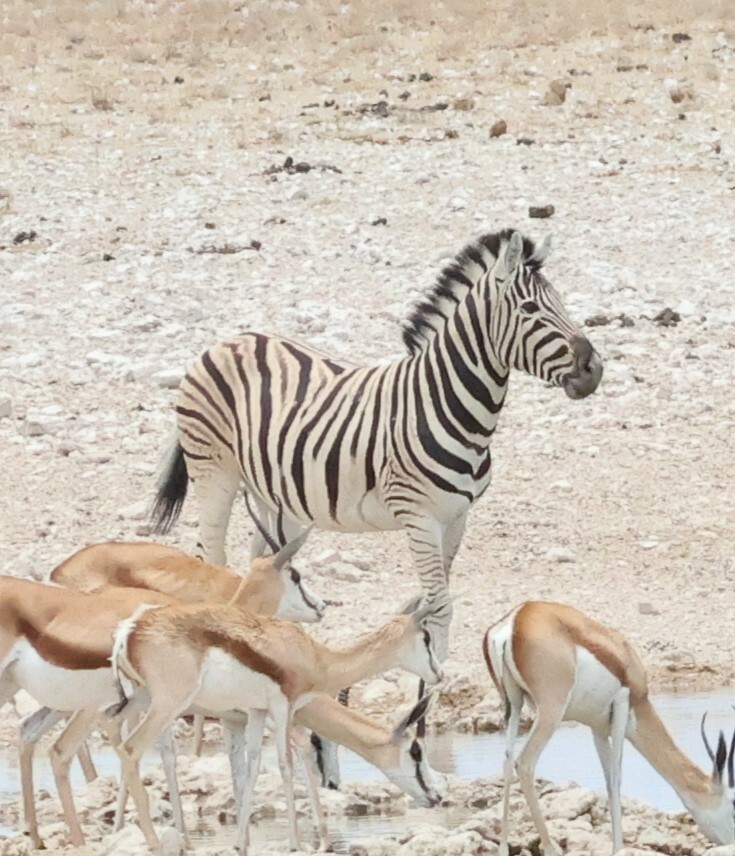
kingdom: Animalia
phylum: Chordata
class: Mammalia
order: Perissodactyla
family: Equidae
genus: Equus
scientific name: Equus quagga
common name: Plains zebra
